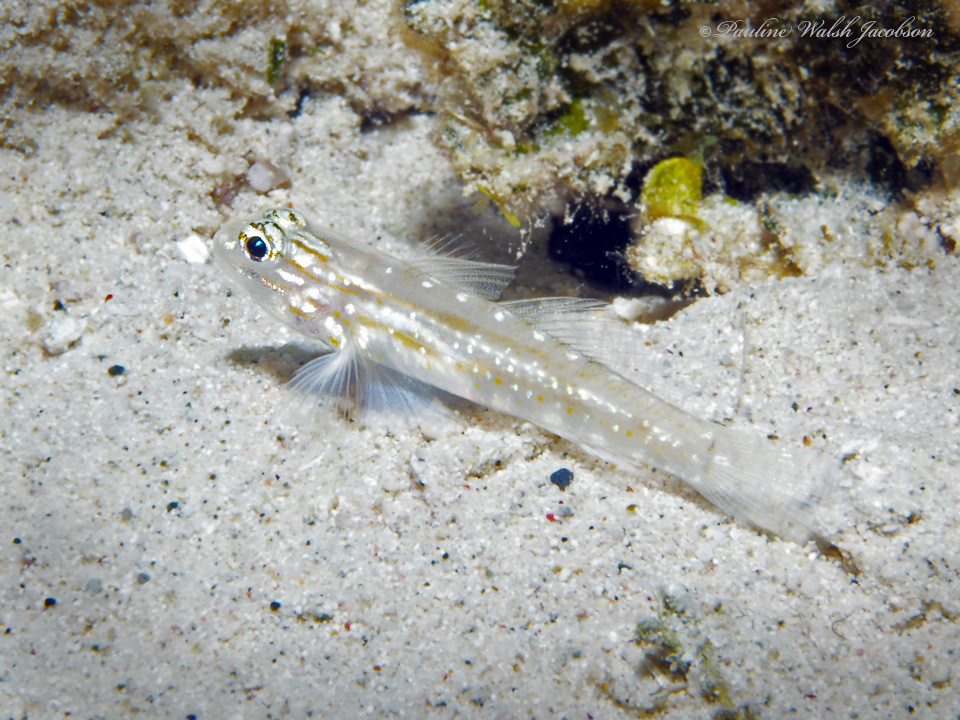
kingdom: Animalia
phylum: Chordata
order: Perciformes
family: Gobiidae
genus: Coryphopterus
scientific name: Coryphopterus venezuelae
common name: Sand-canyon goby
